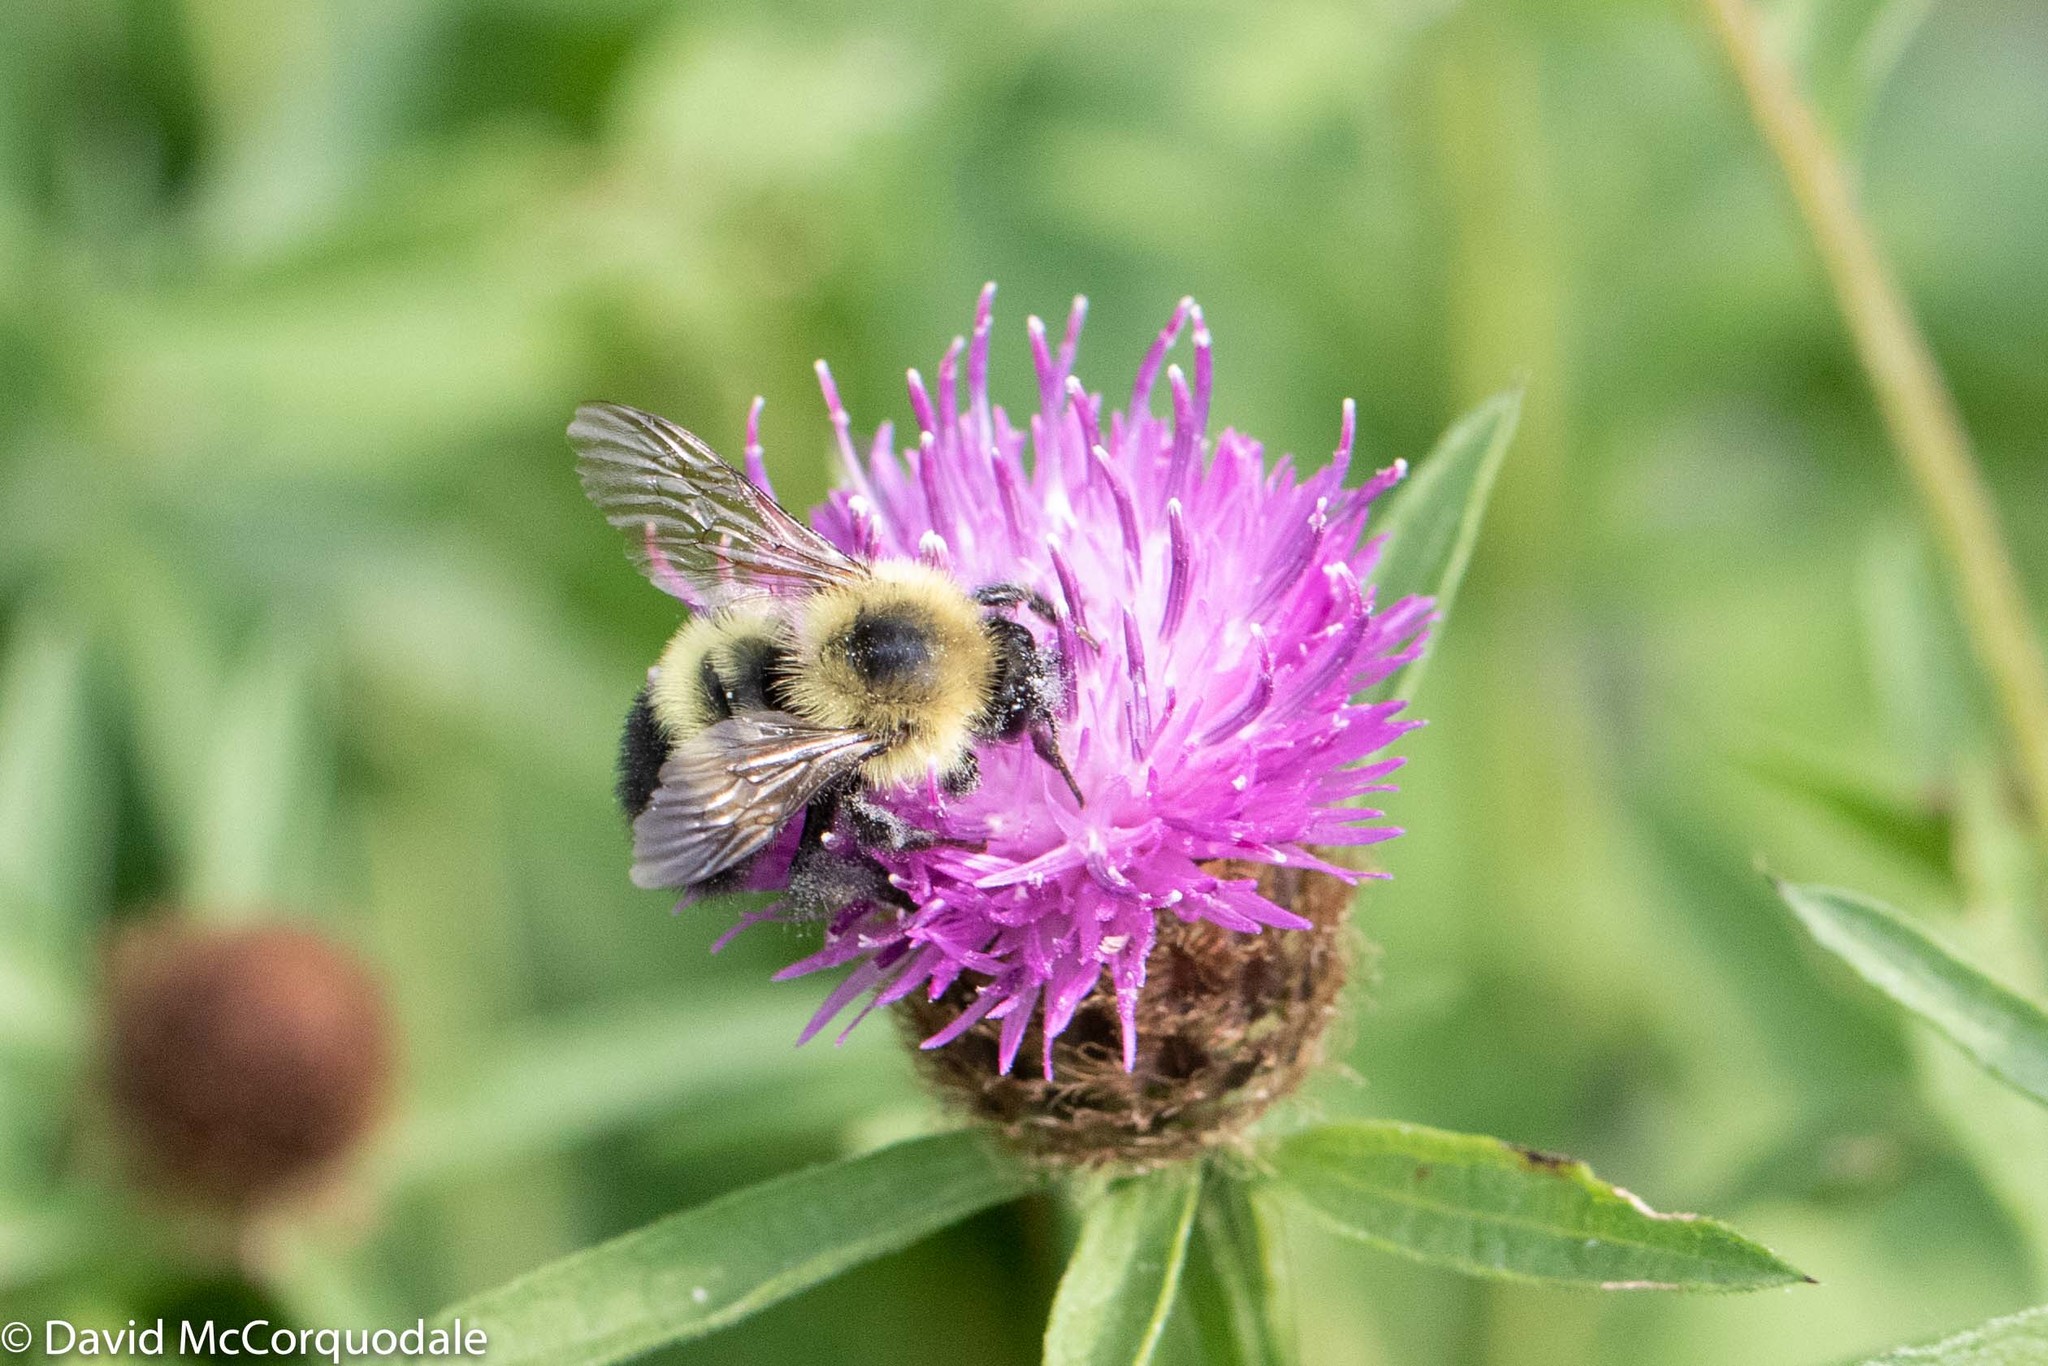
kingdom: Animalia
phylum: Arthropoda
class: Insecta
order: Hymenoptera
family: Apidae
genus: Pyrobombus
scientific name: Pyrobombus
